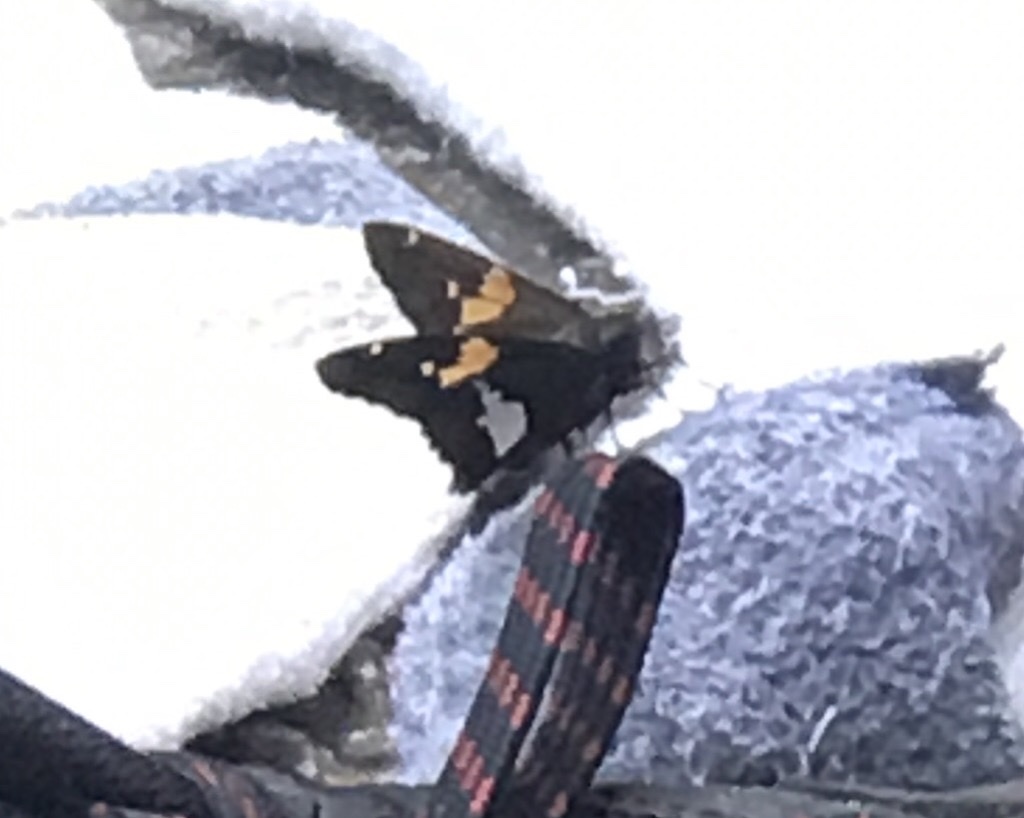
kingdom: Animalia
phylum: Arthropoda
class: Insecta
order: Lepidoptera
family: Hesperiidae
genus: Epargyreus
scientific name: Epargyreus clarus
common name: Silver-spotted skipper
